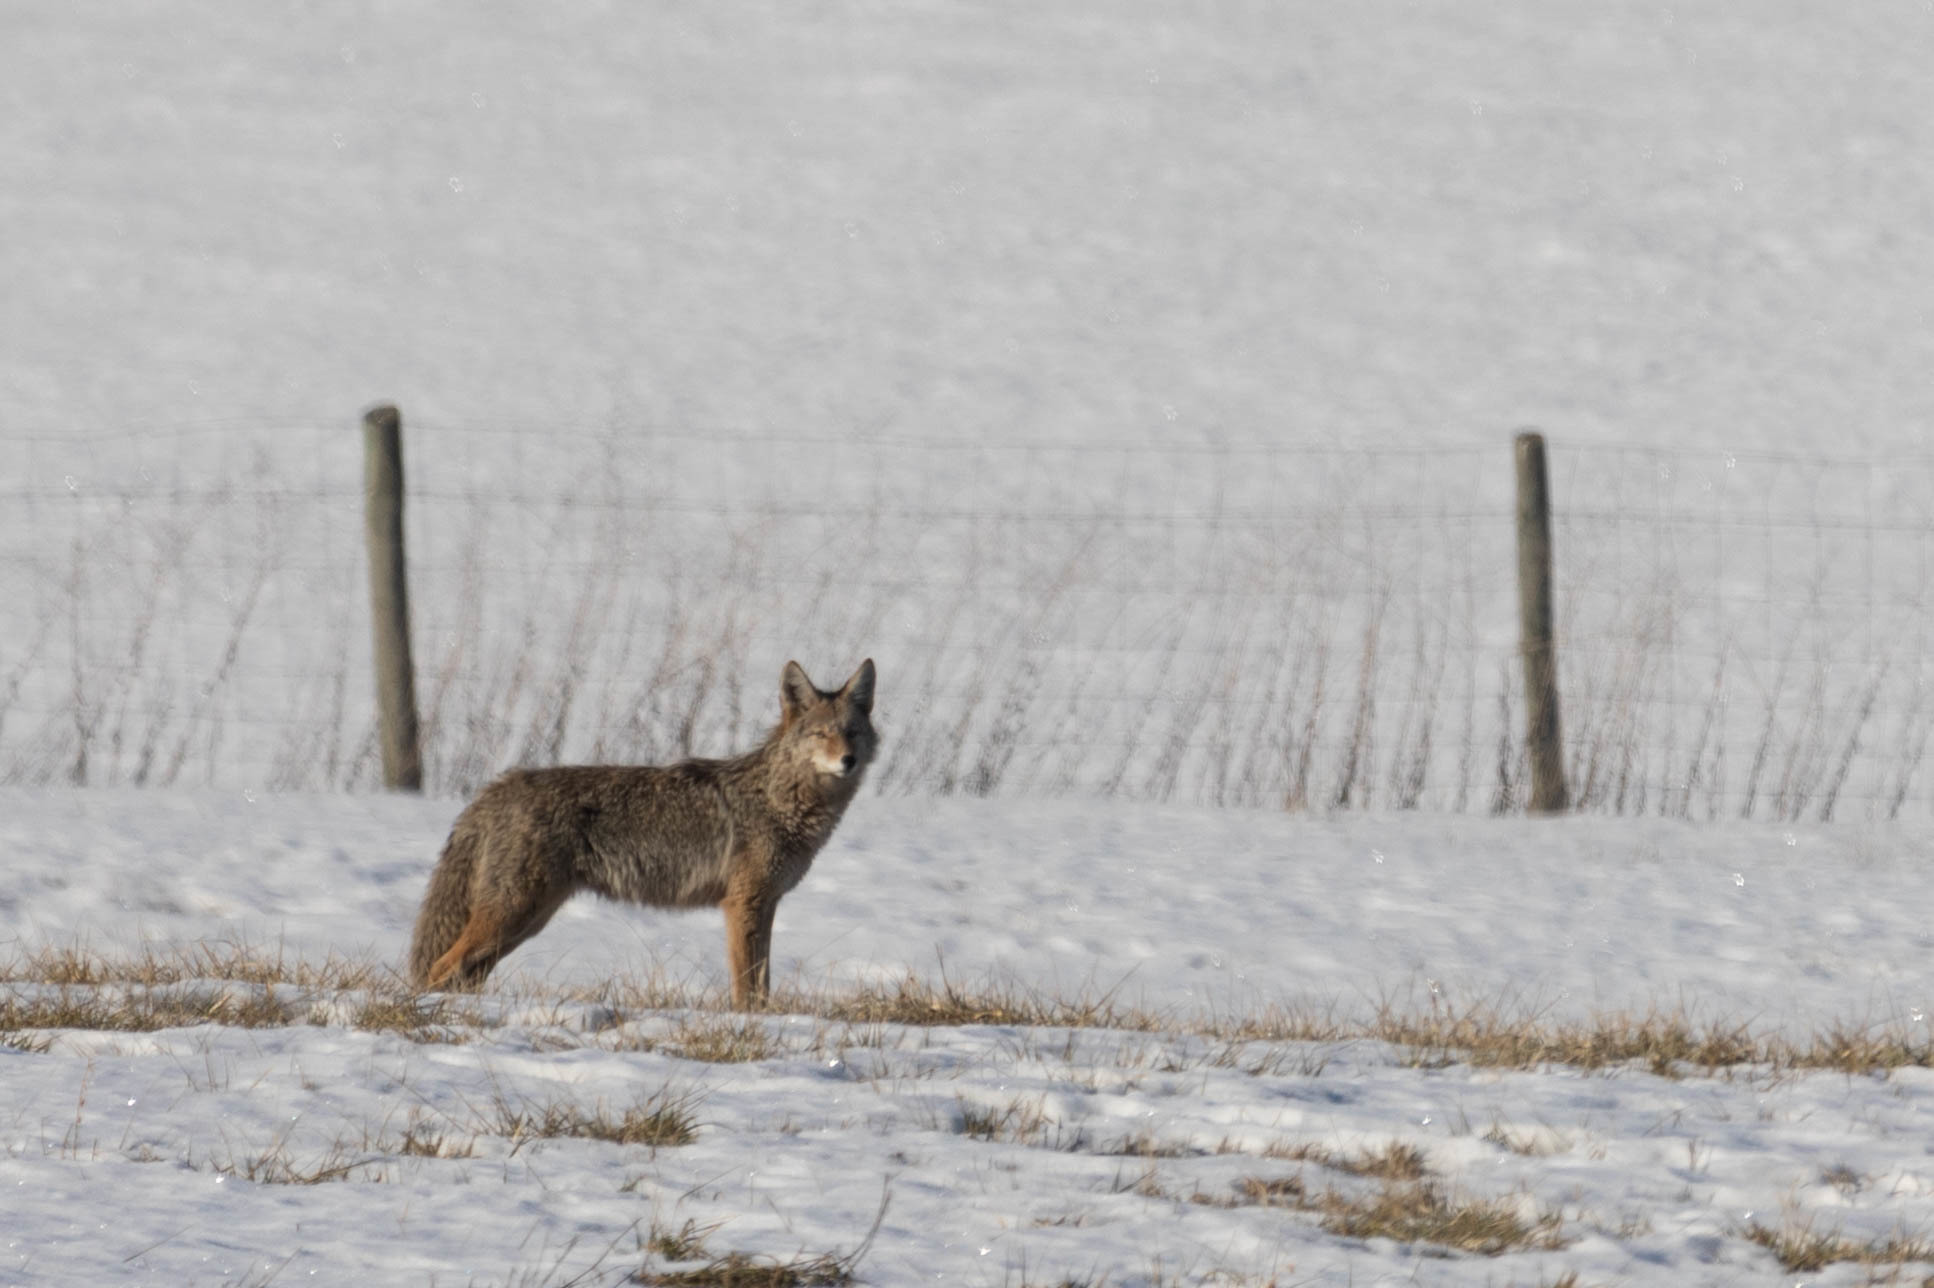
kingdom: Animalia
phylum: Chordata
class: Mammalia
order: Carnivora
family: Canidae
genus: Canis
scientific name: Canis latrans
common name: Coyote
